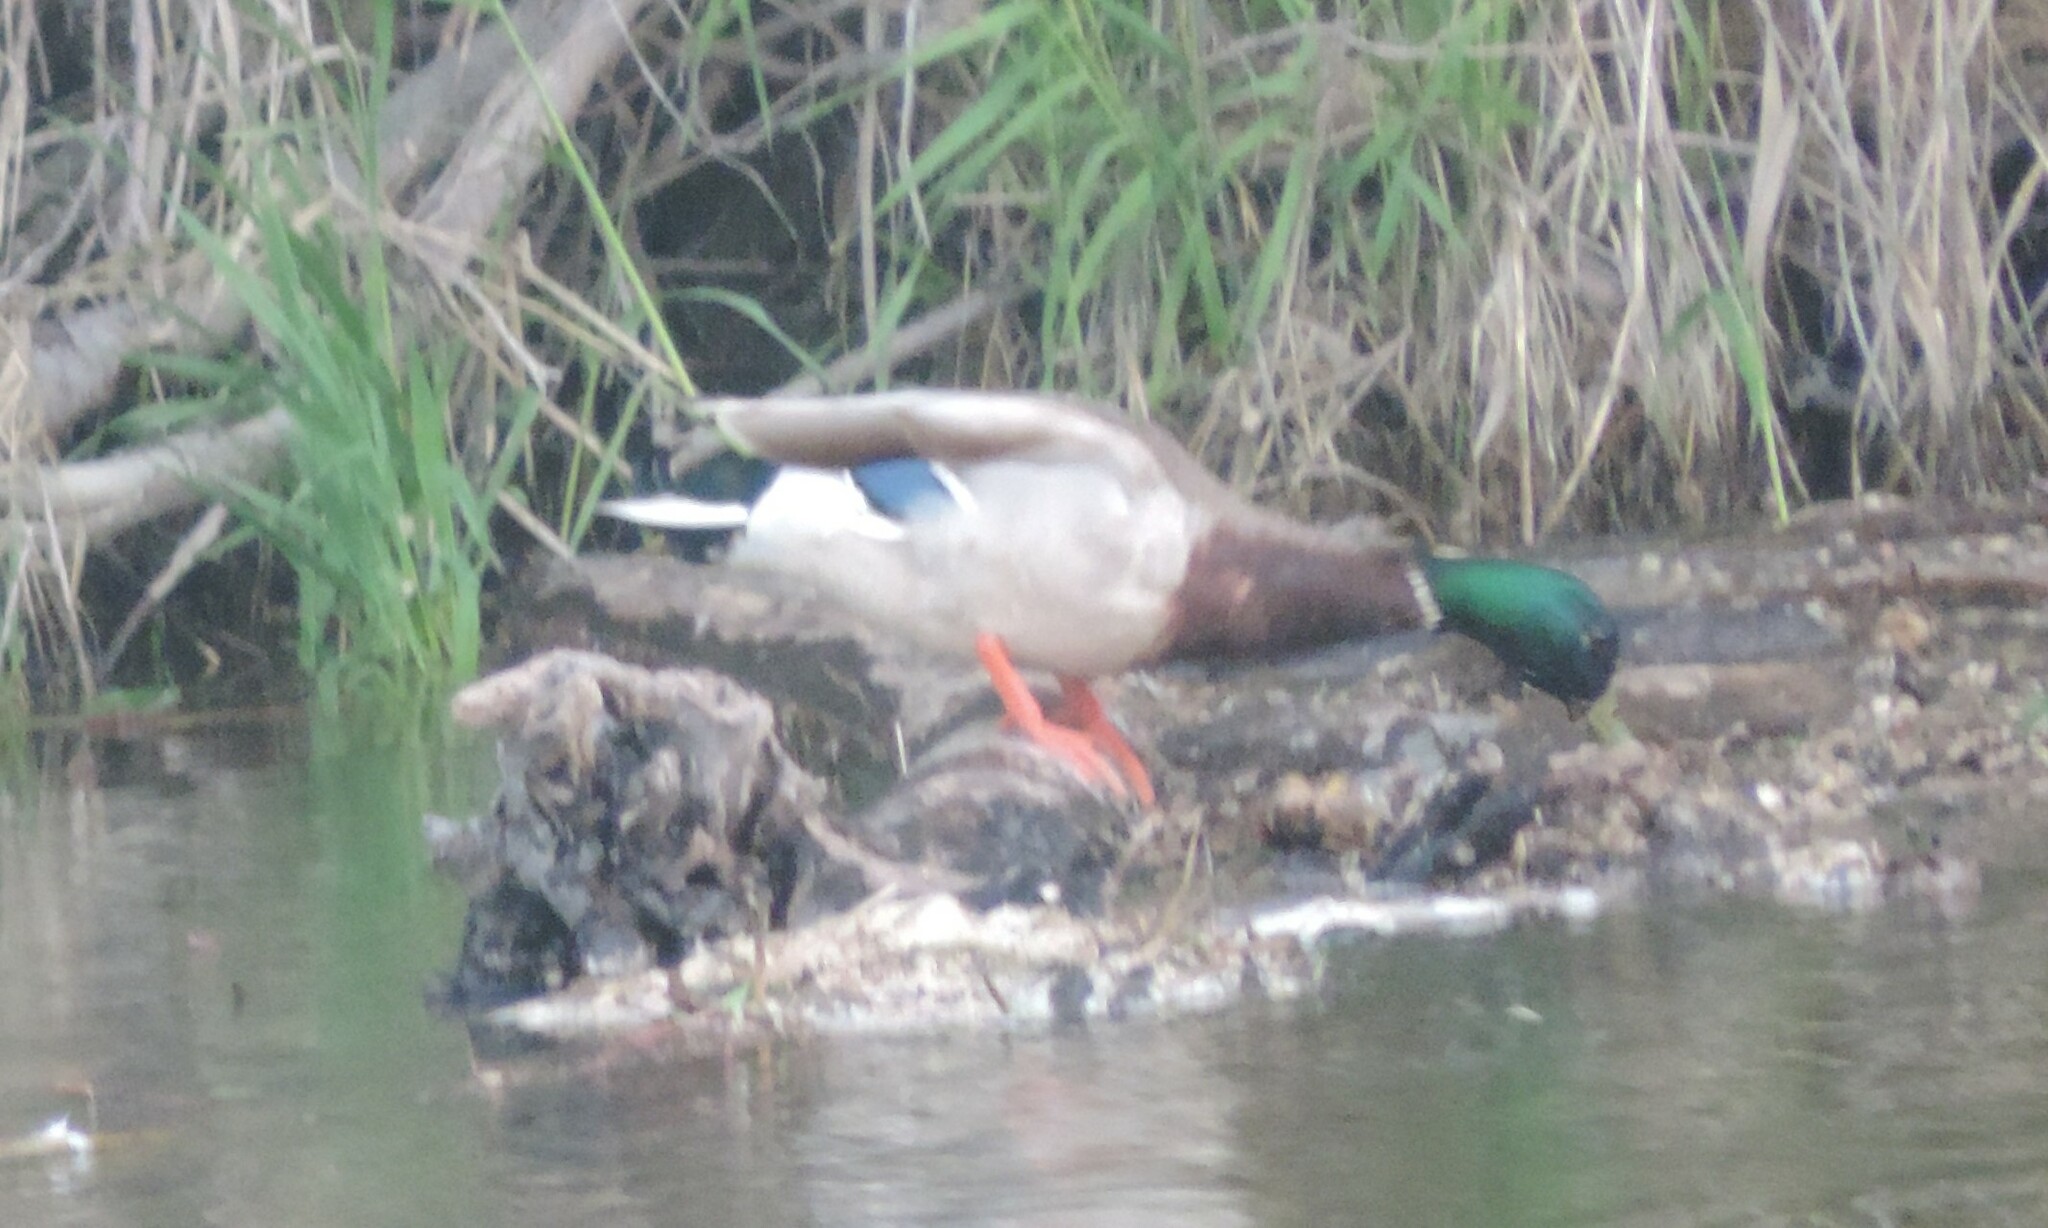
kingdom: Animalia
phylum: Chordata
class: Aves
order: Anseriformes
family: Anatidae
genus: Anas
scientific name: Anas platyrhynchos
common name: Mallard
